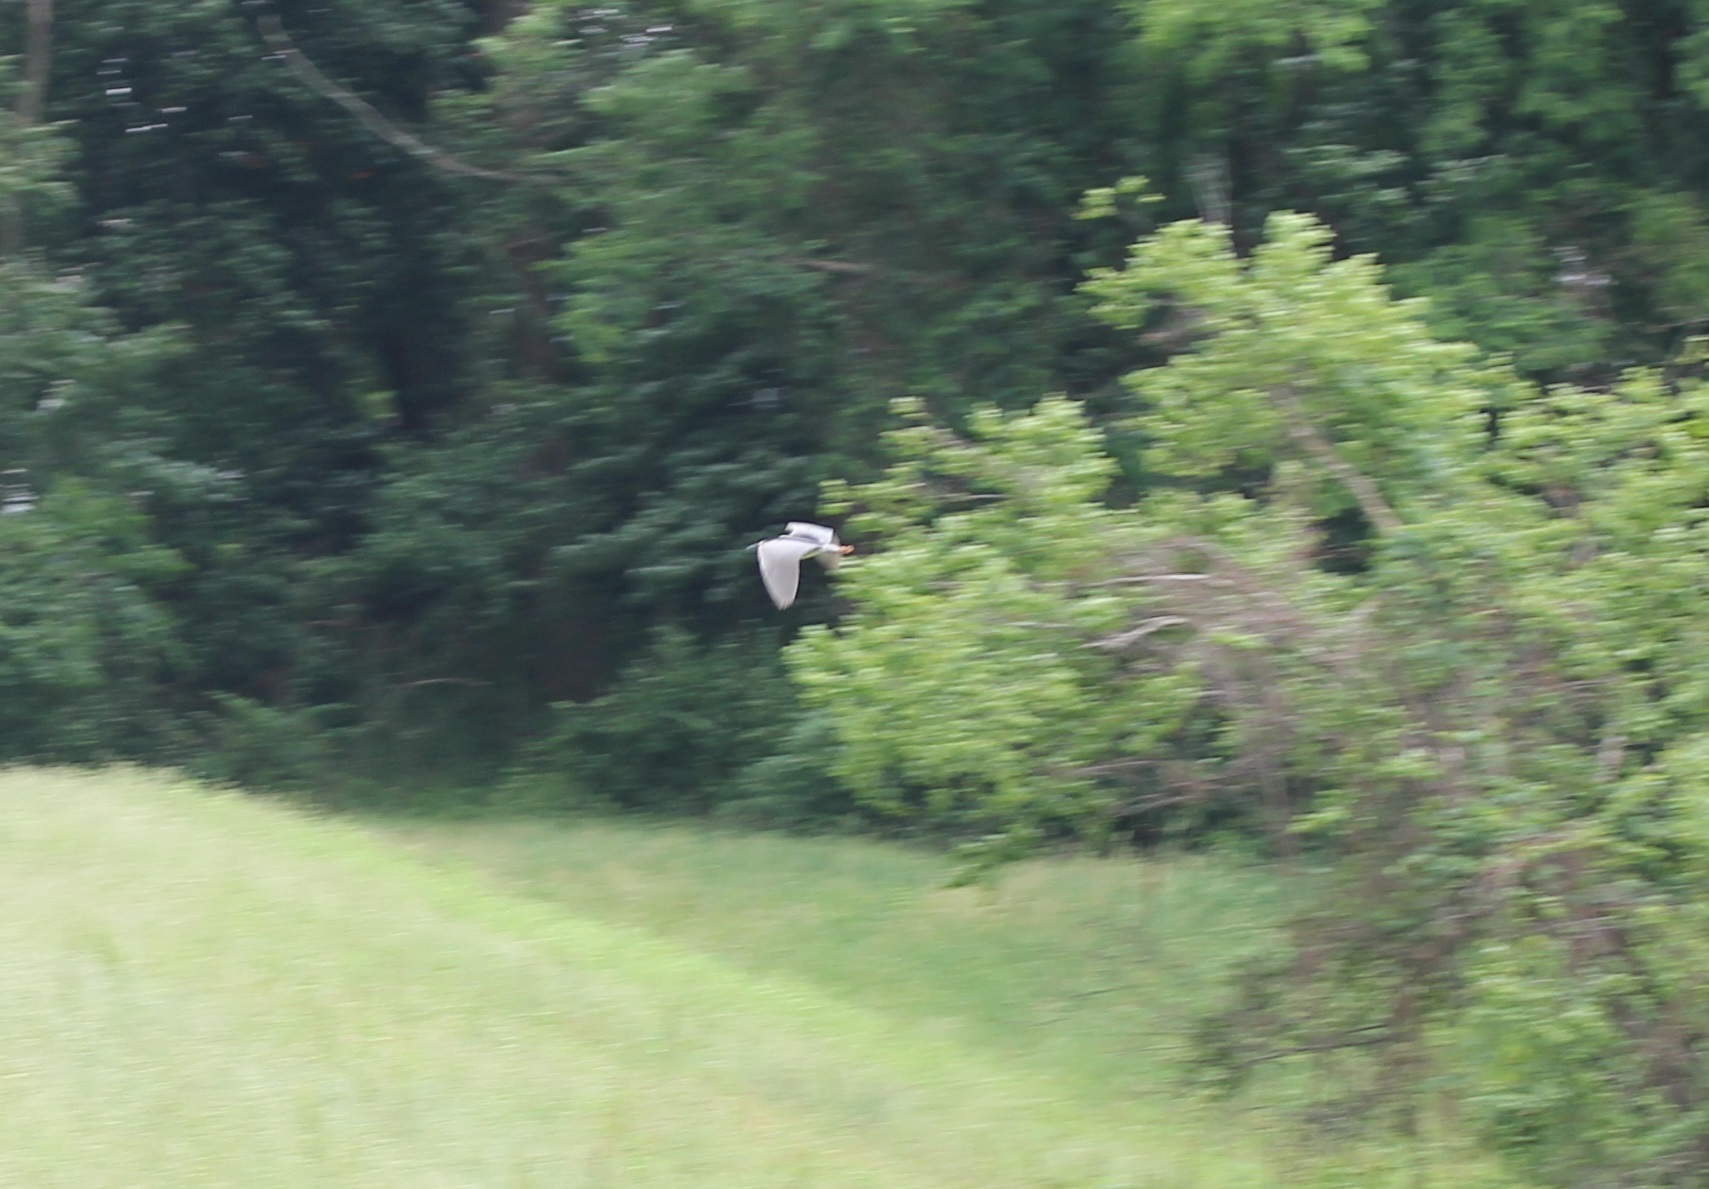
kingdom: Animalia
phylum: Chordata
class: Aves
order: Pelecaniformes
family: Ardeidae
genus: Nycticorax
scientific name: Nycticorax nycticorax
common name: Black-crowned night heron
